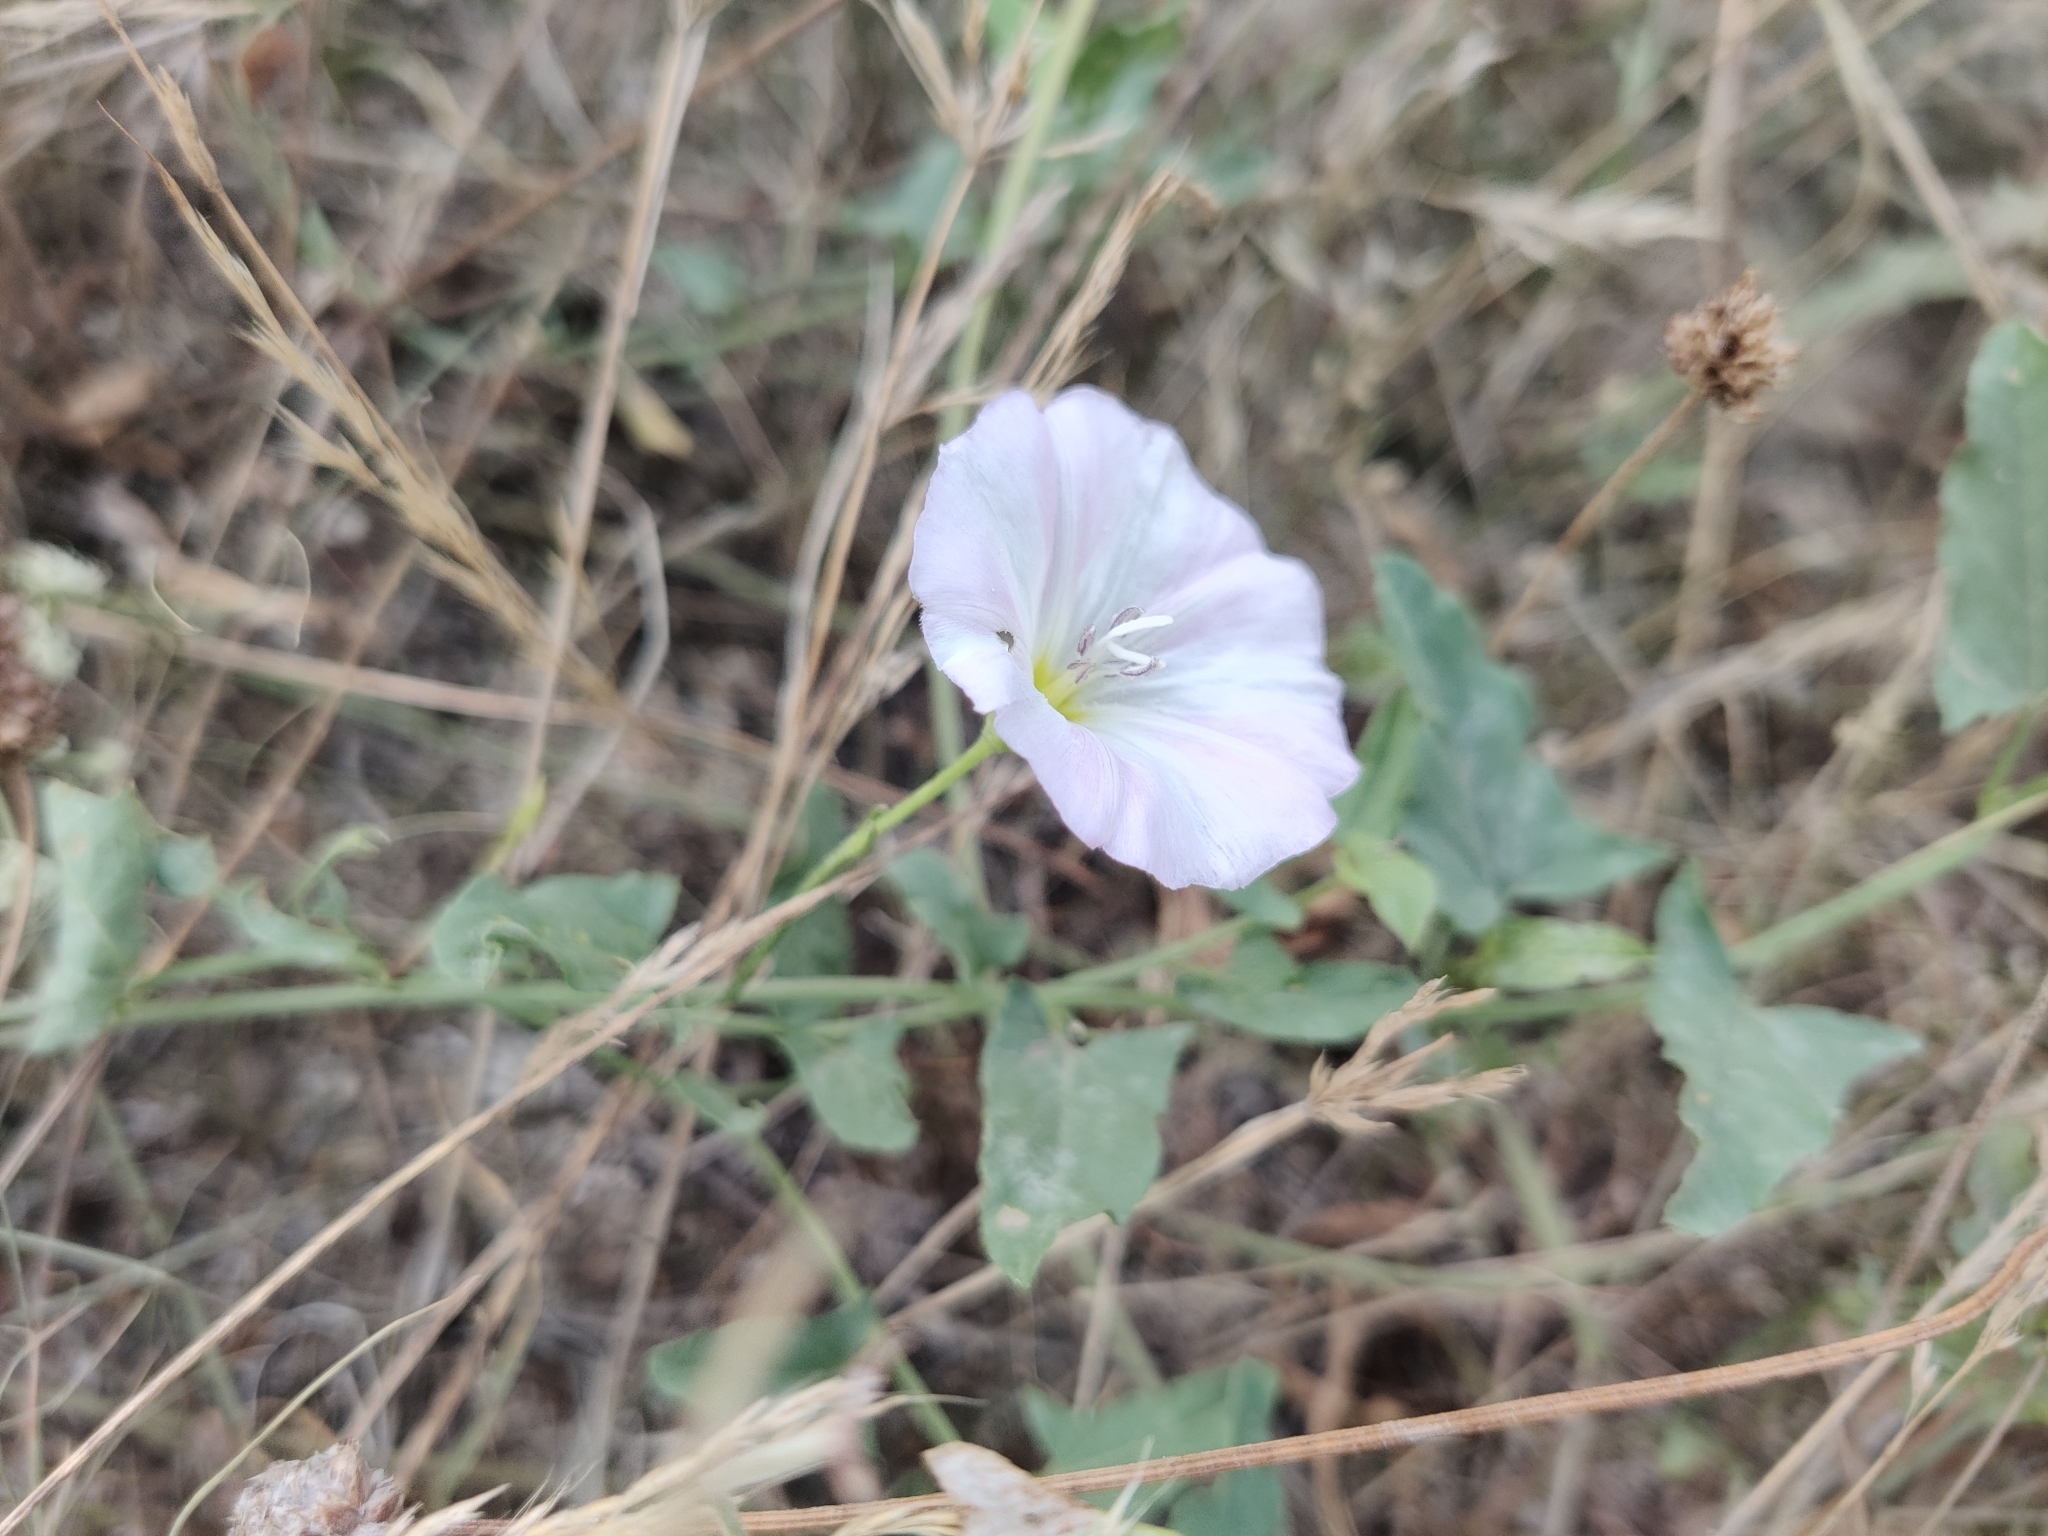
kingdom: Plantae
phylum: Tracheophyta
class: Magnoliopsida
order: Solanales
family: Convolvulaceae
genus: Convolvulus
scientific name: Convolvulus arvensis
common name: Field bindweed
